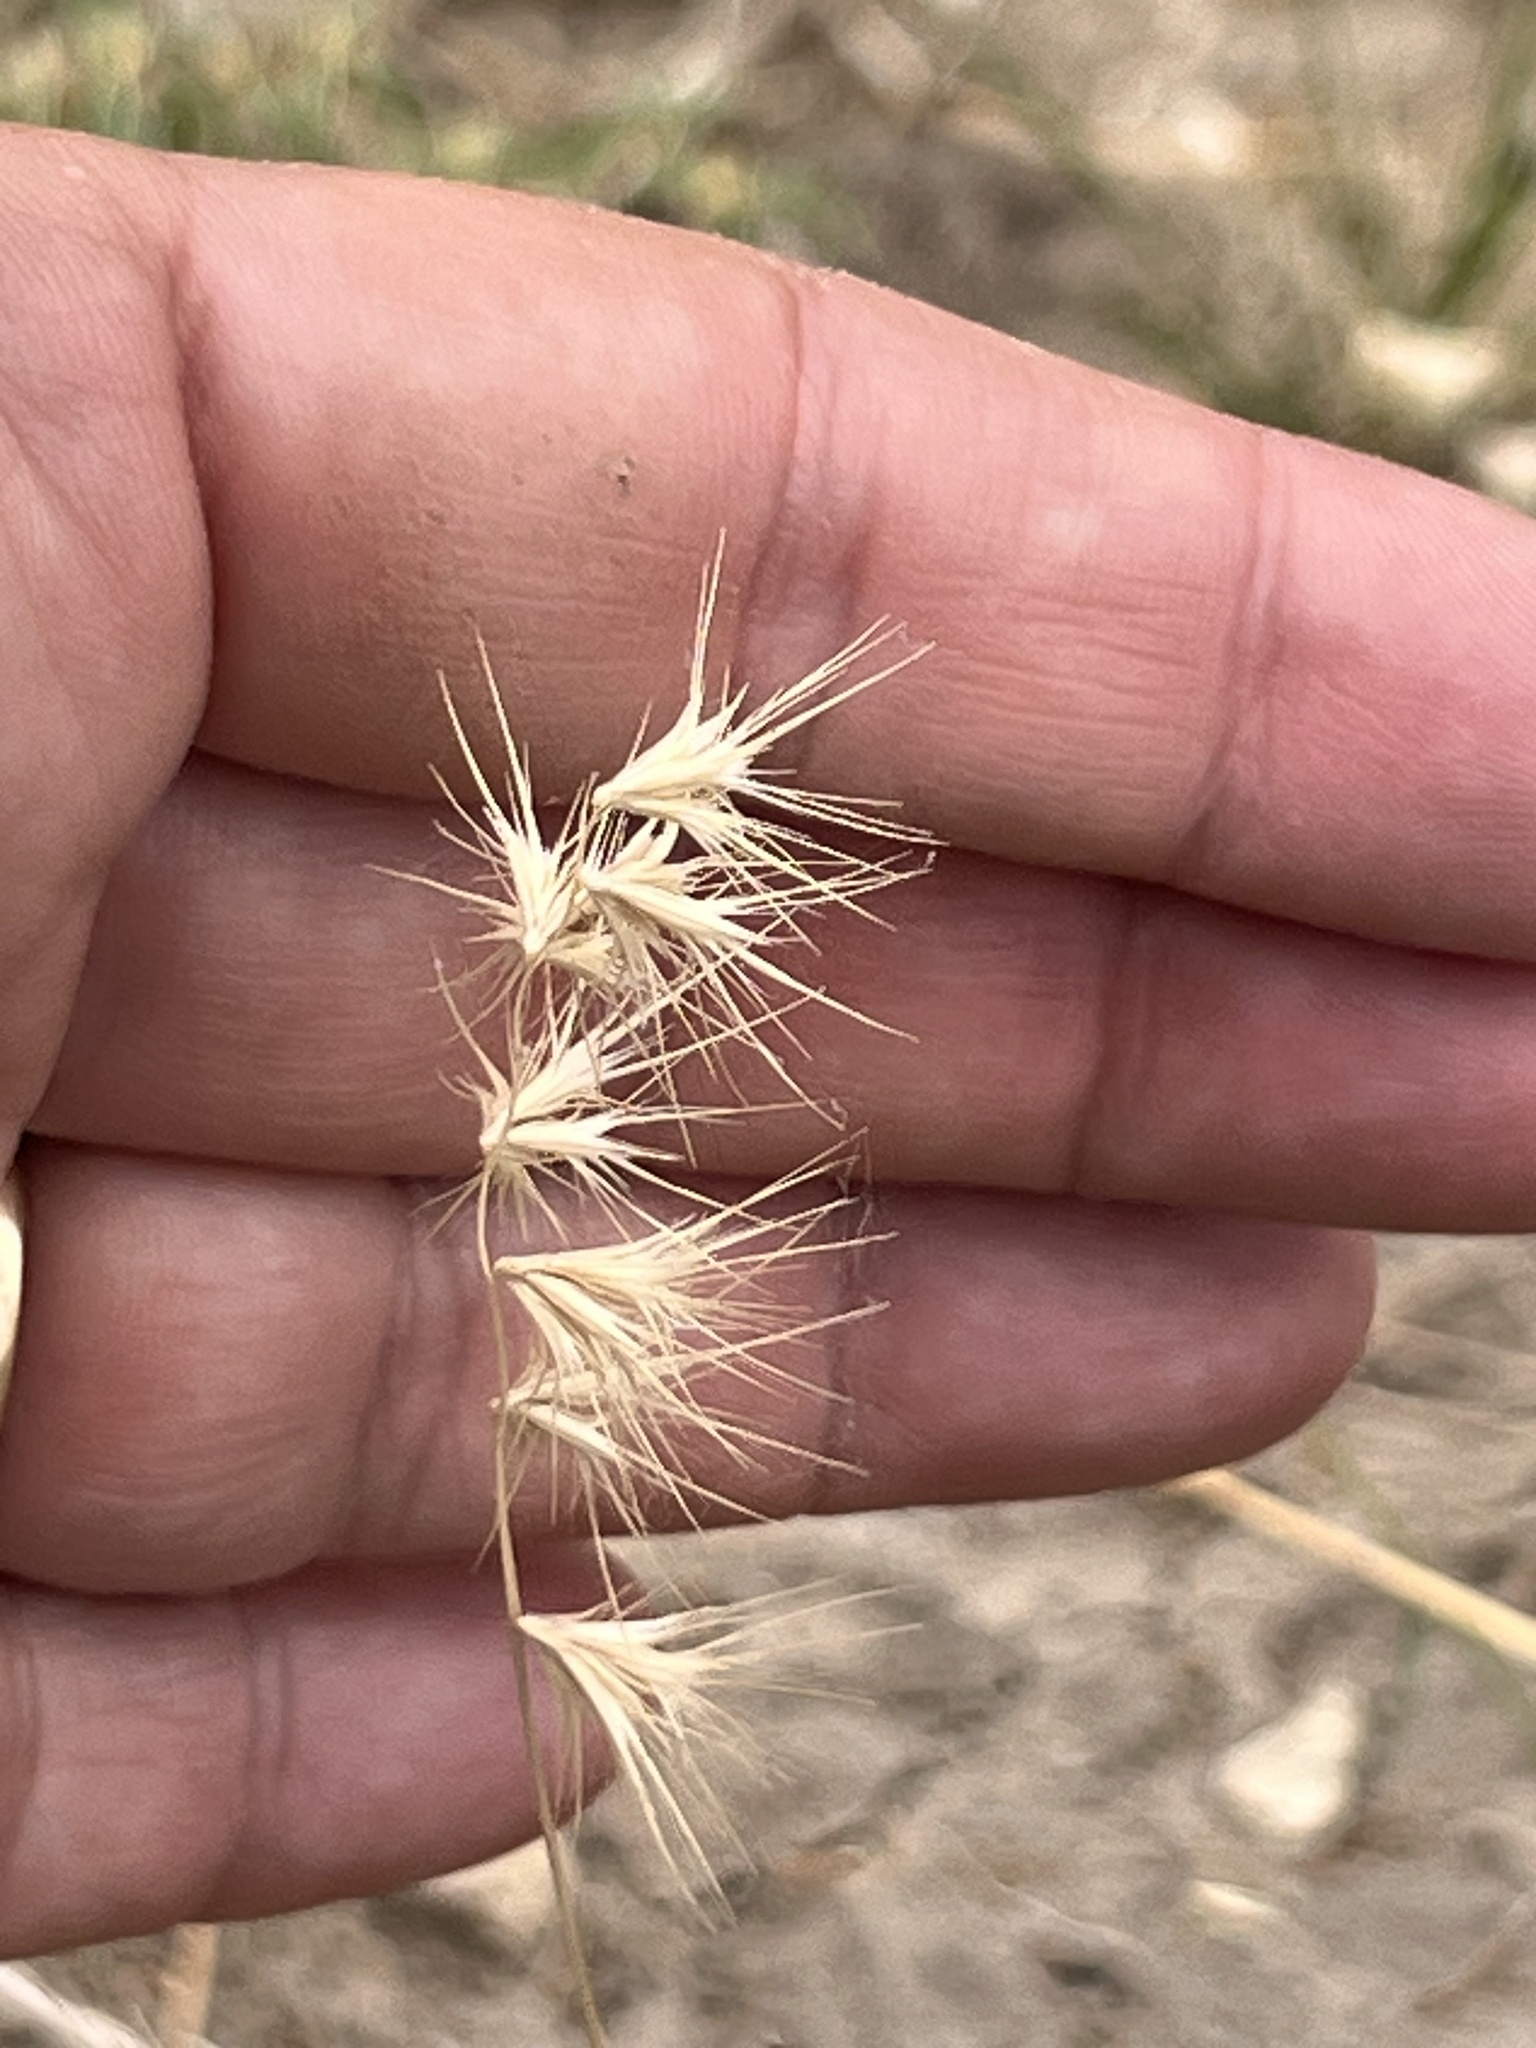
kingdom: Plantae
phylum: Tracheophyta
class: Liliopsida
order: Poales
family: Poaceae
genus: Bouteloua
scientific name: Bouteloua rigidiseta
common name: Texas grama
